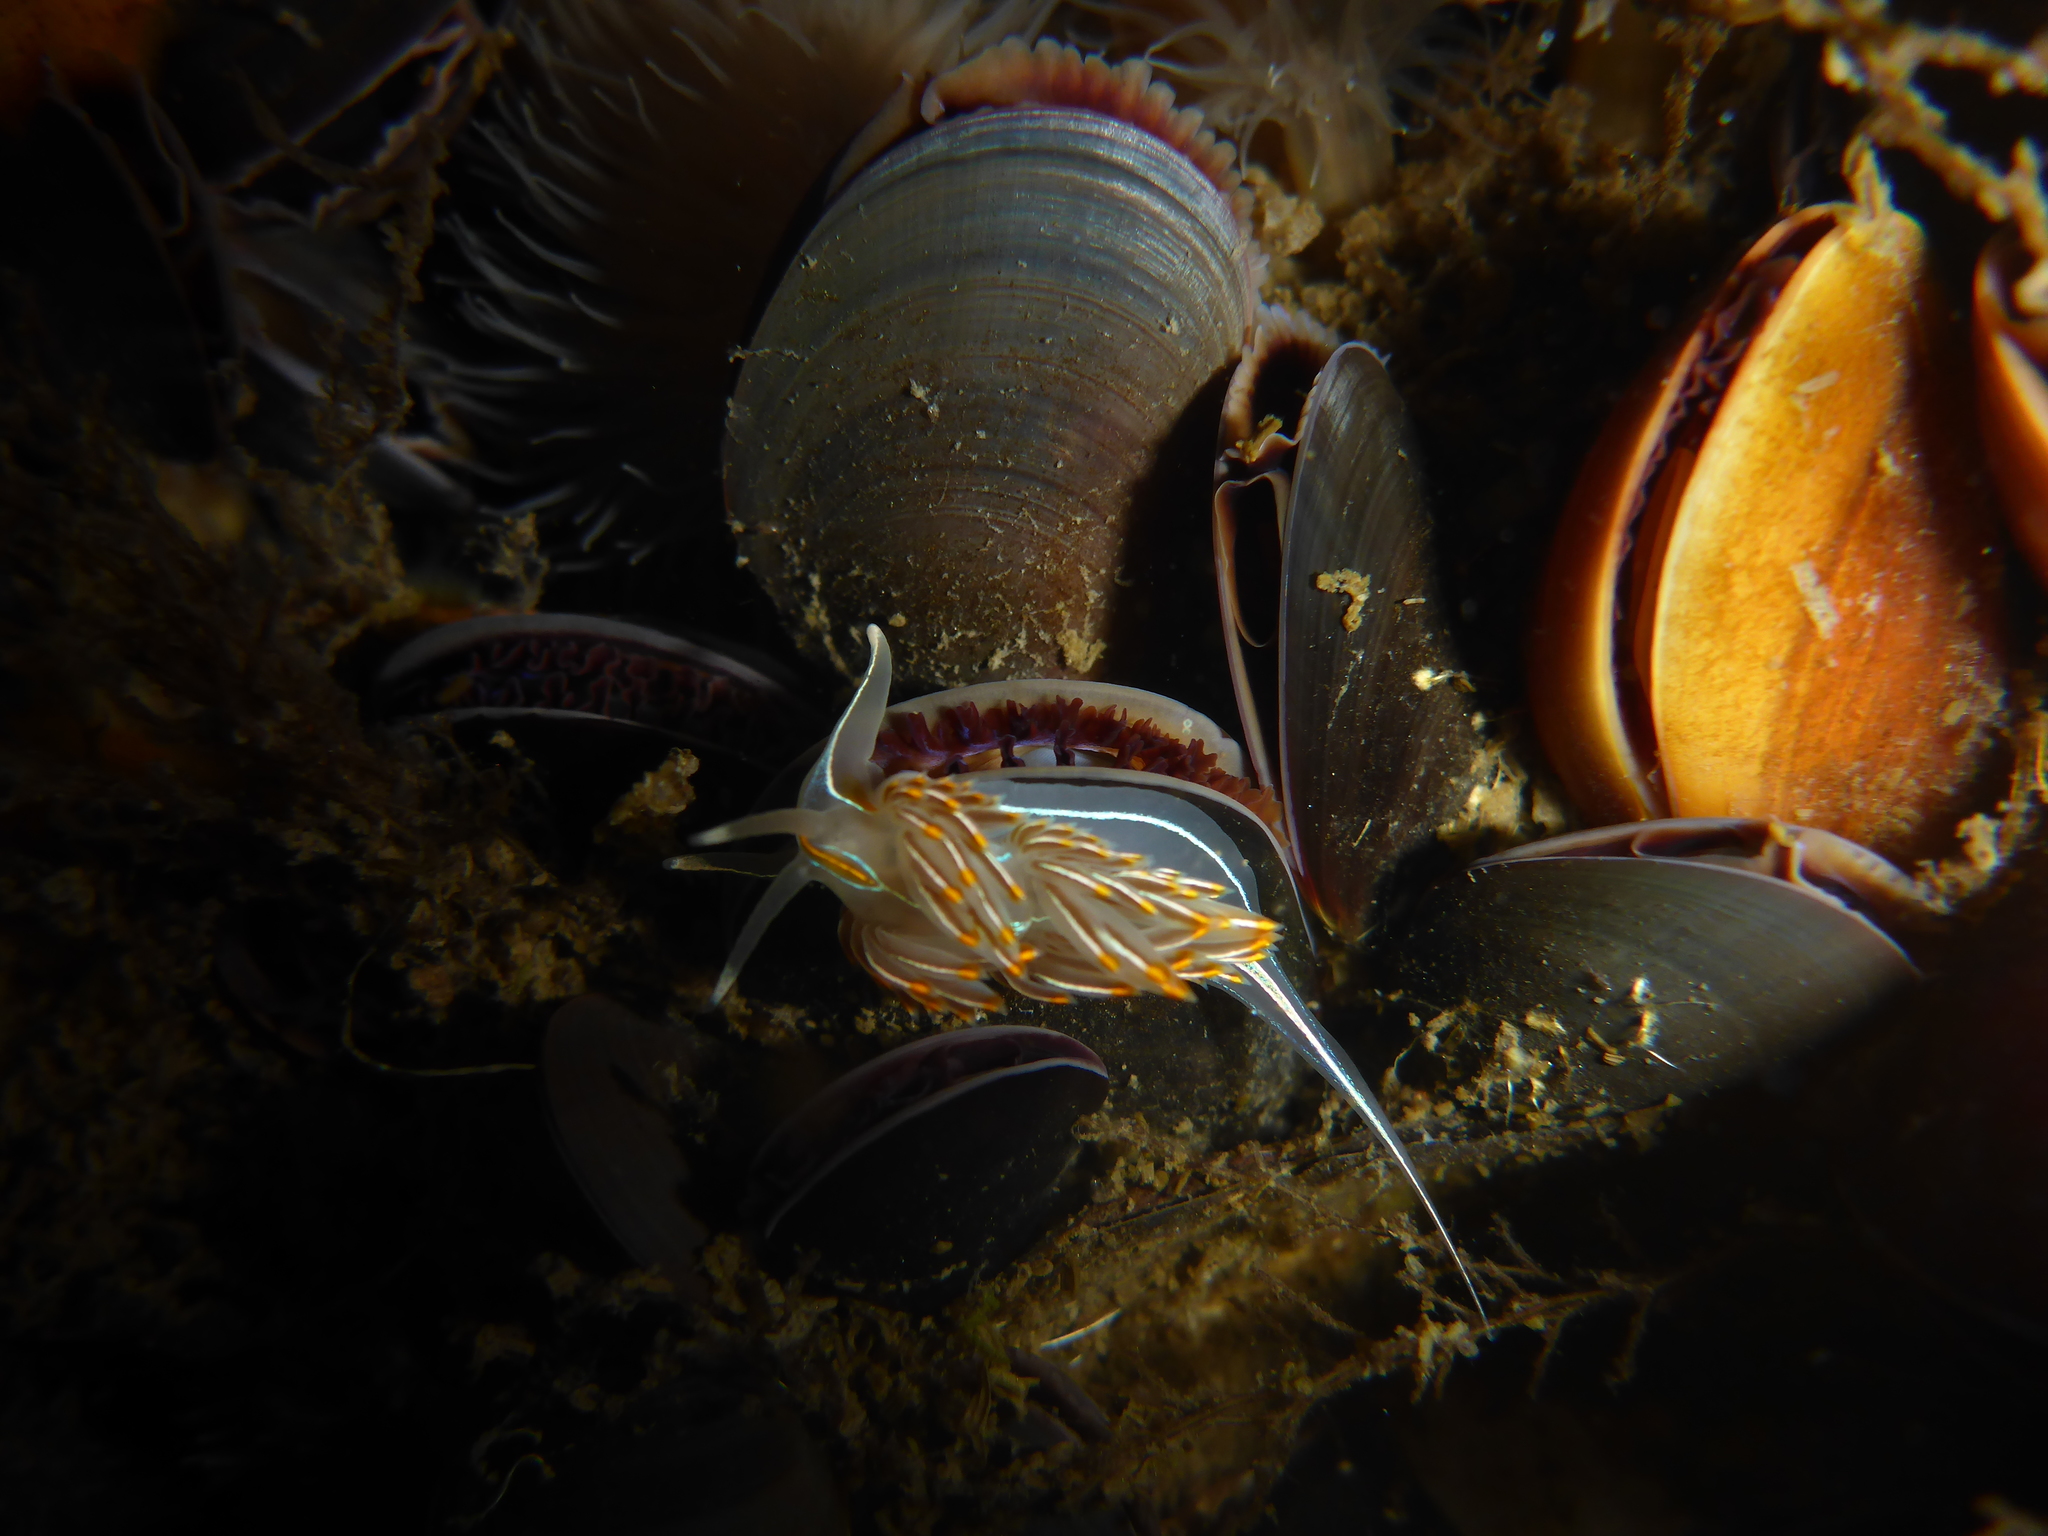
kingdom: Animalia
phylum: Mollusca
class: Gastropoda
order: Nudibranchia
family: Myrrhinidae
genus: Hermissenda
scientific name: Hermissenda crassicornis
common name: Hermissenda
